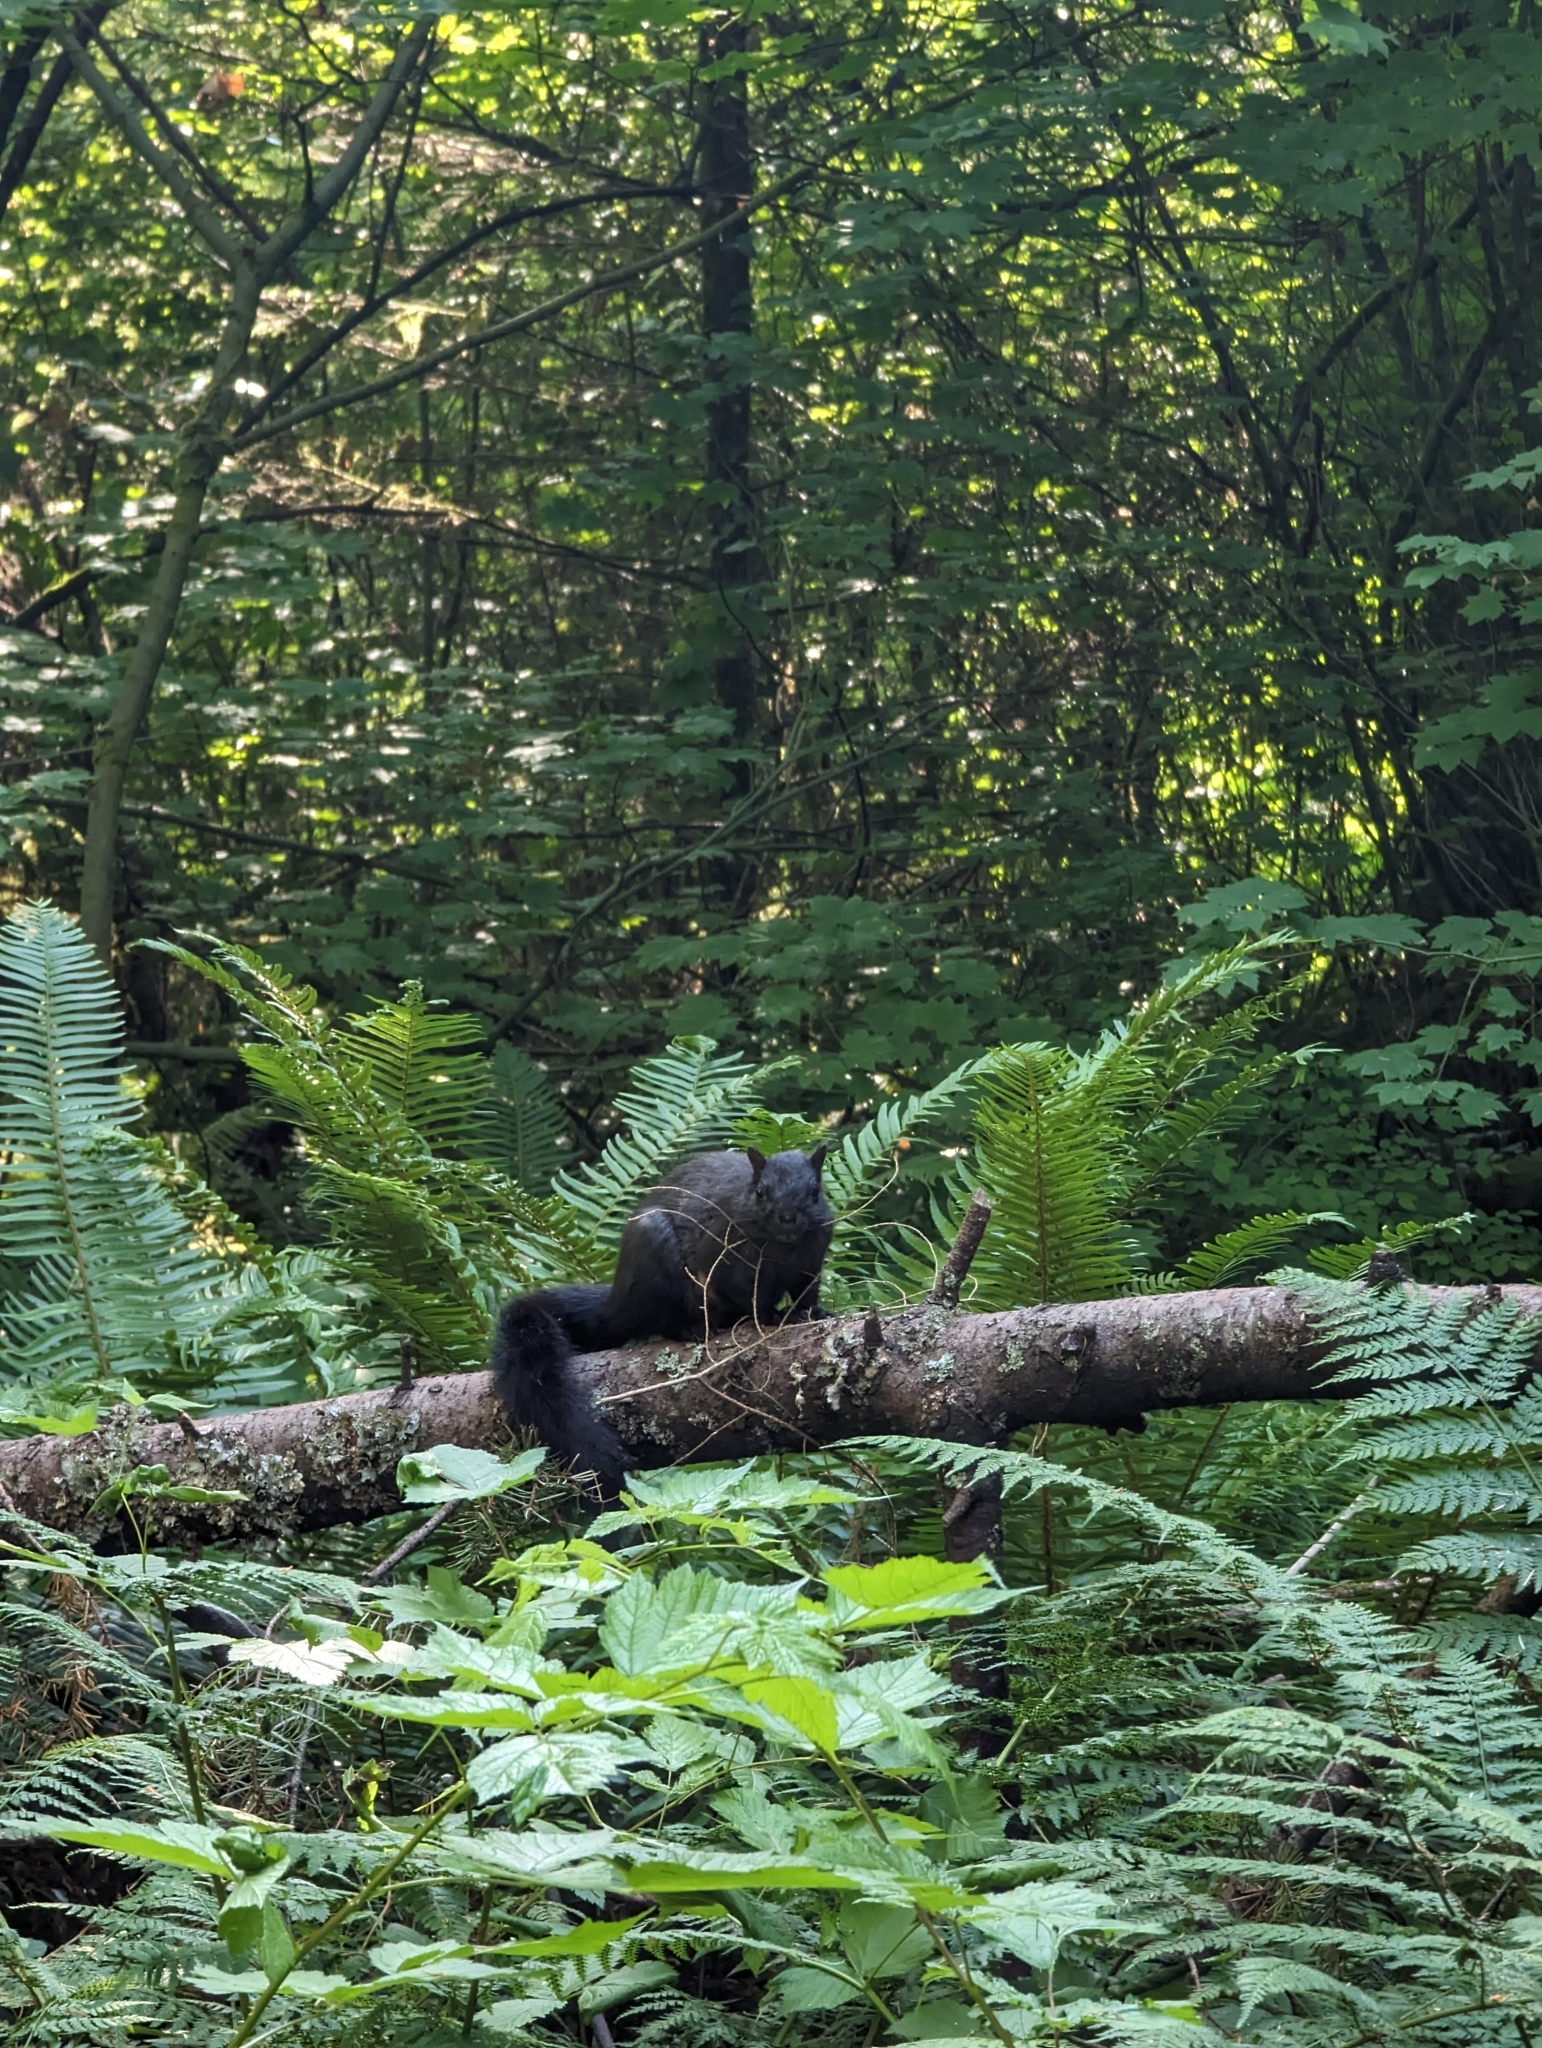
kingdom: Animalia
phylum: Chordata
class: Mammalia
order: Rodentia
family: Sciuridae
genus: Sciurus
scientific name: Sciurus carolinensis
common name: Eastern gray squirrel
